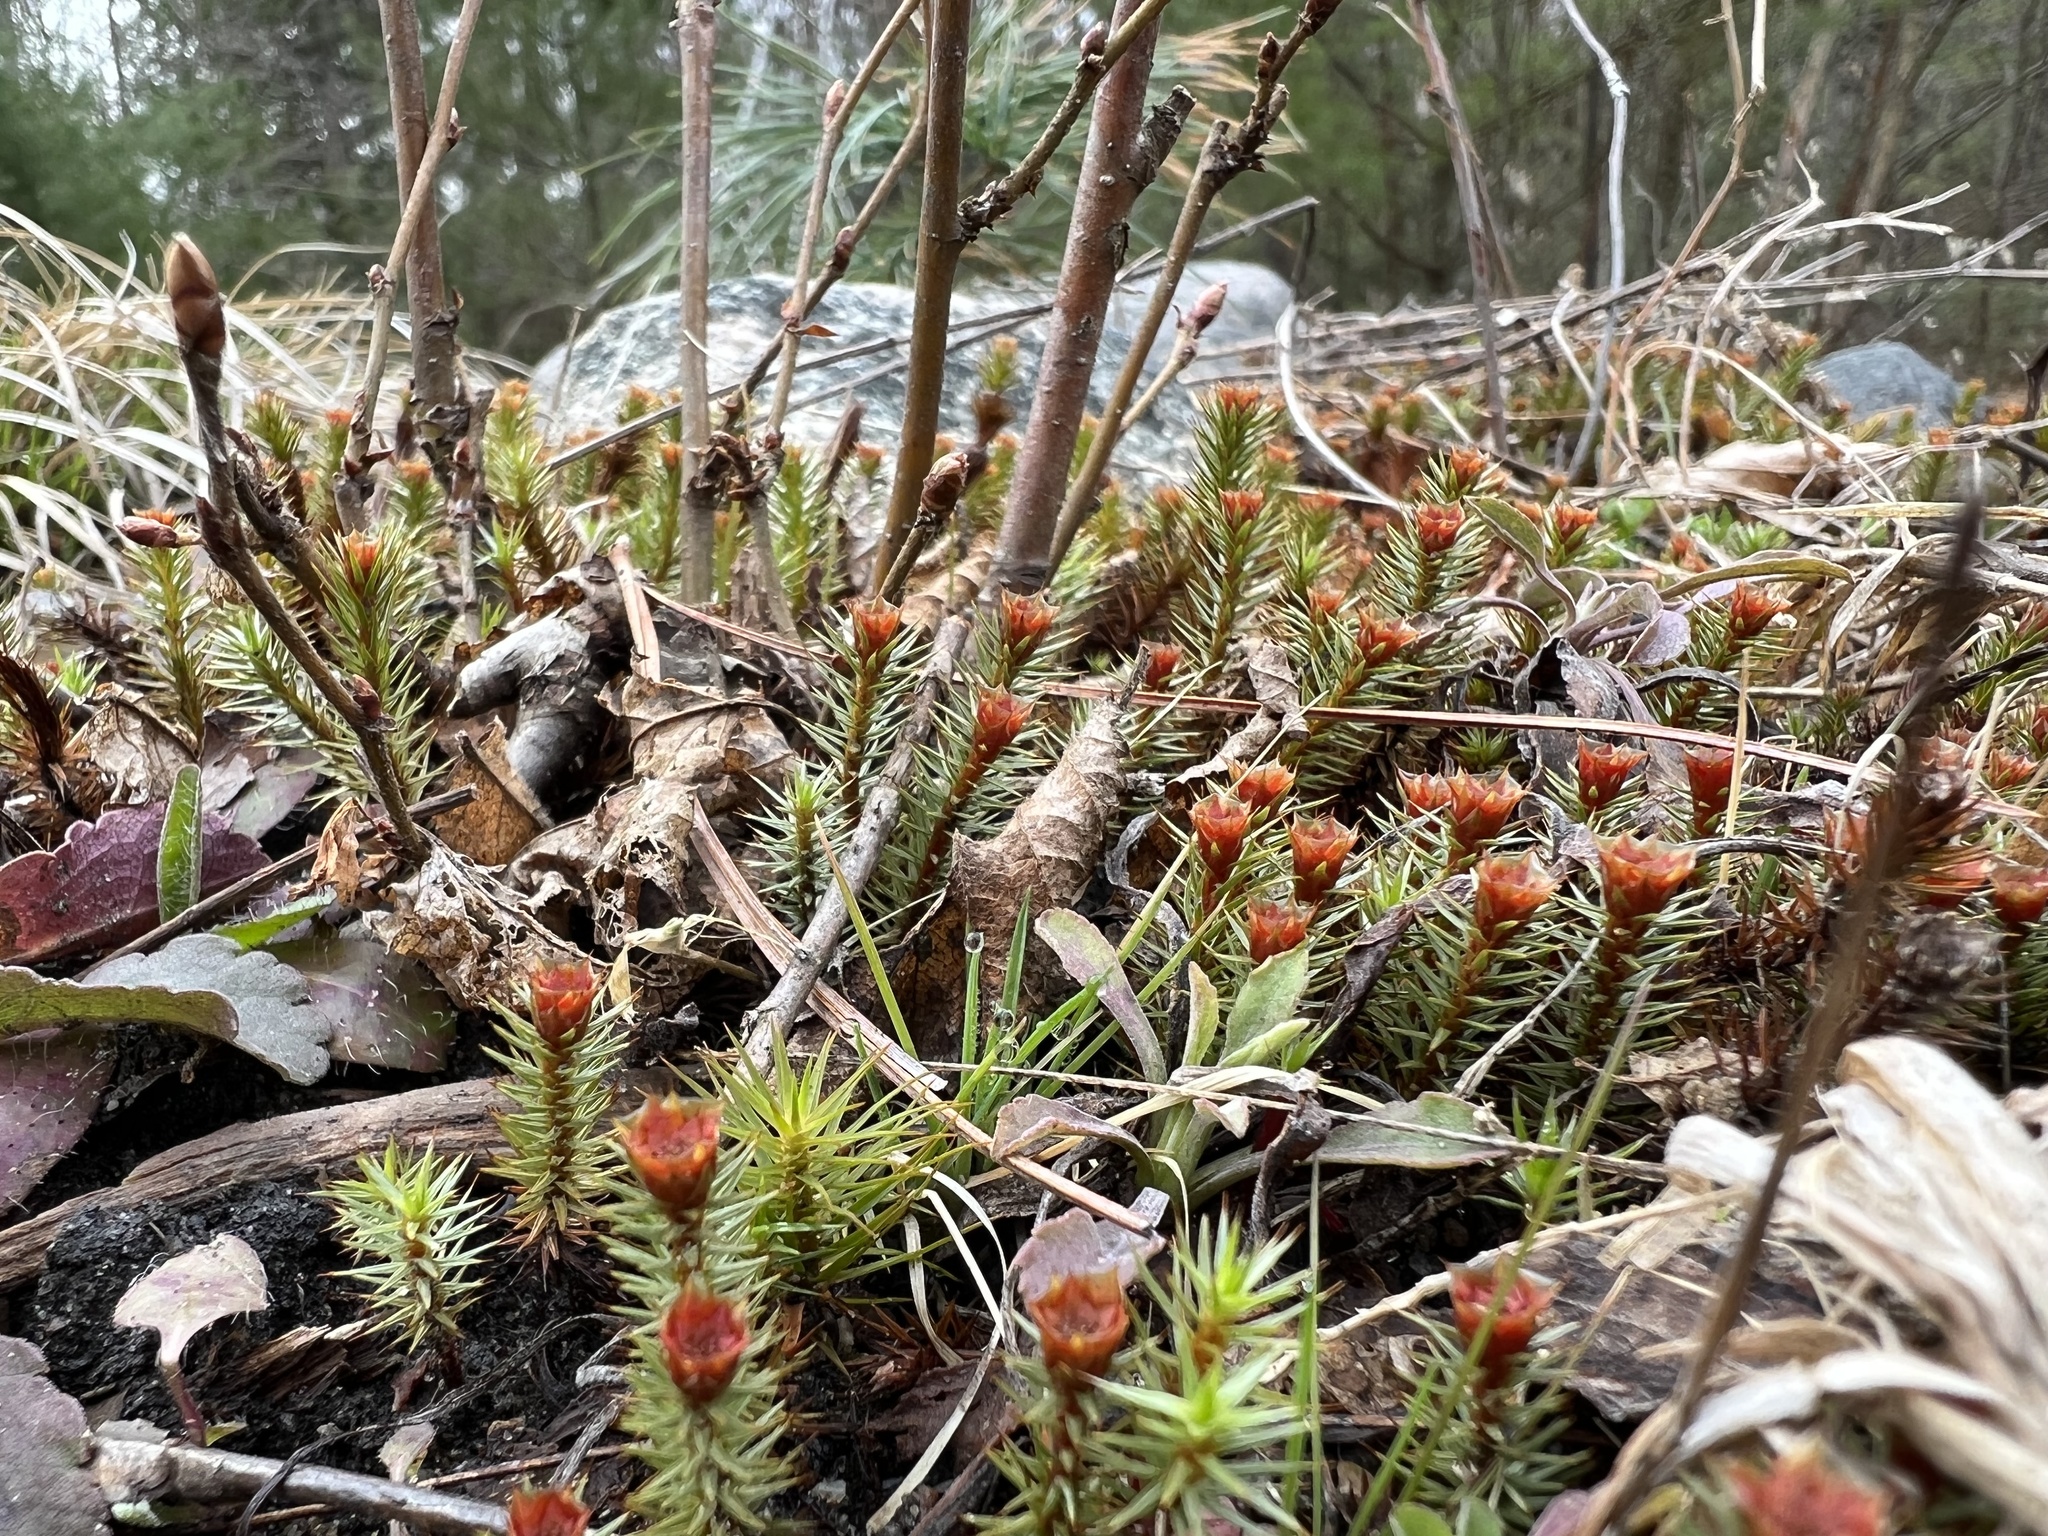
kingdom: Plantae
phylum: Bryophyta
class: Polytrichopsida
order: Polytrichales
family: Polytrichaceae
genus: Polytrichum
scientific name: Polytrichum juniperinum
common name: Juniper haircap moss
